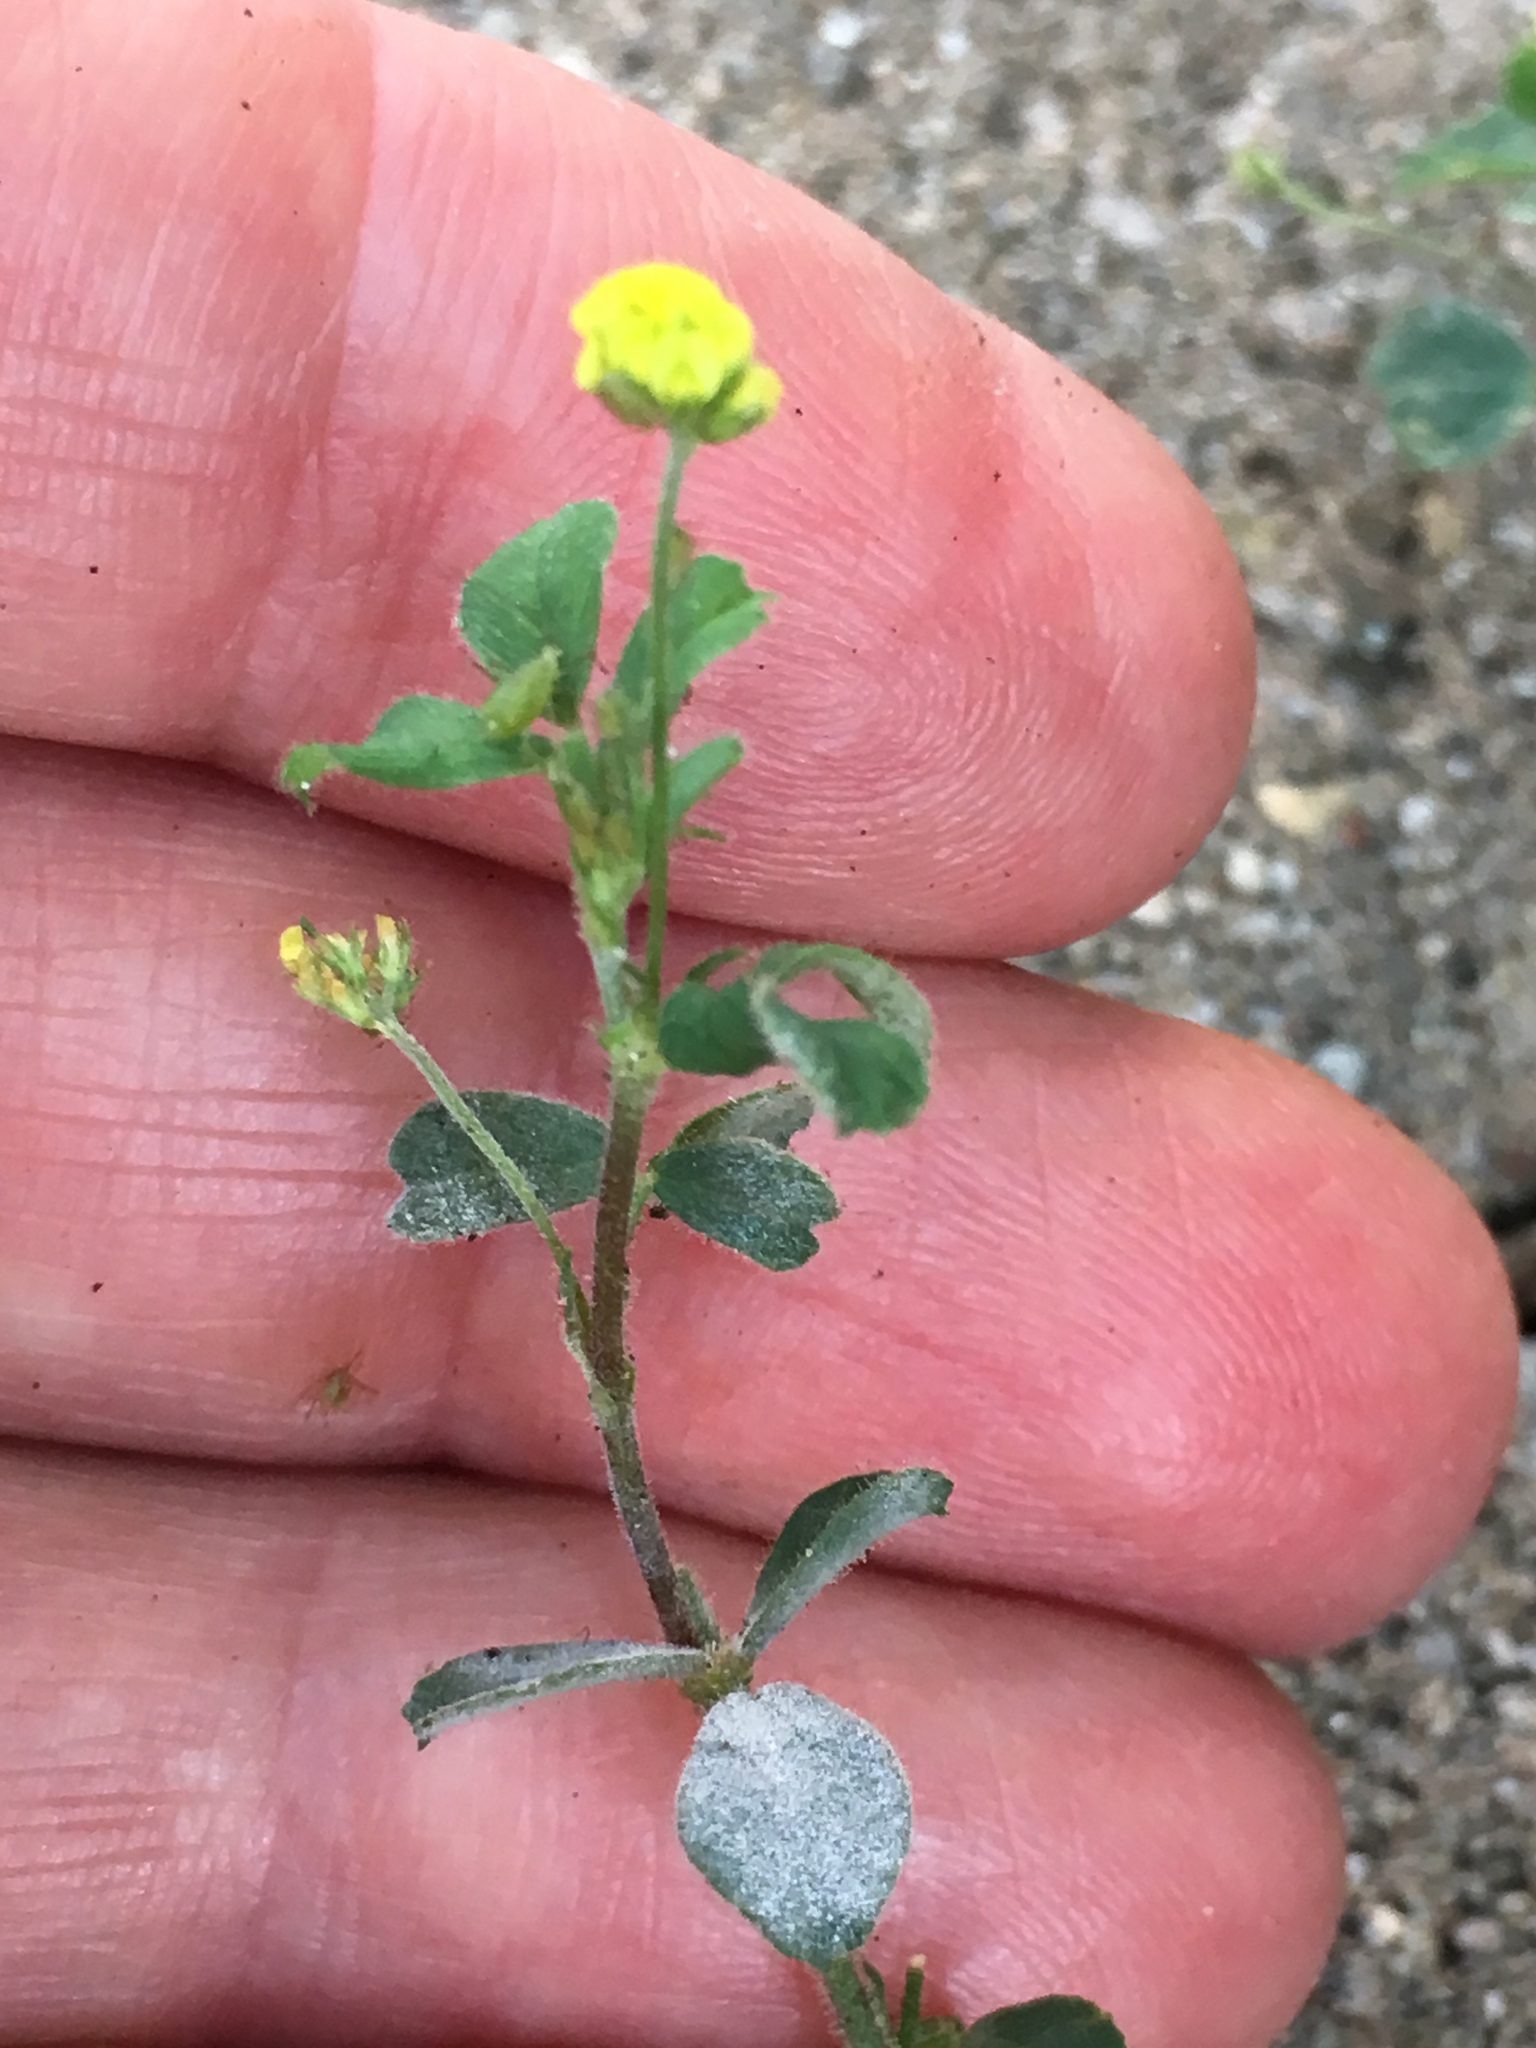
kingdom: Plantae
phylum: Tracheophyta
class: Magnoliopsida
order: Fabales
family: Fabaceae
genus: Medicago
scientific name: Medicago lupulina
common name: Black medick
